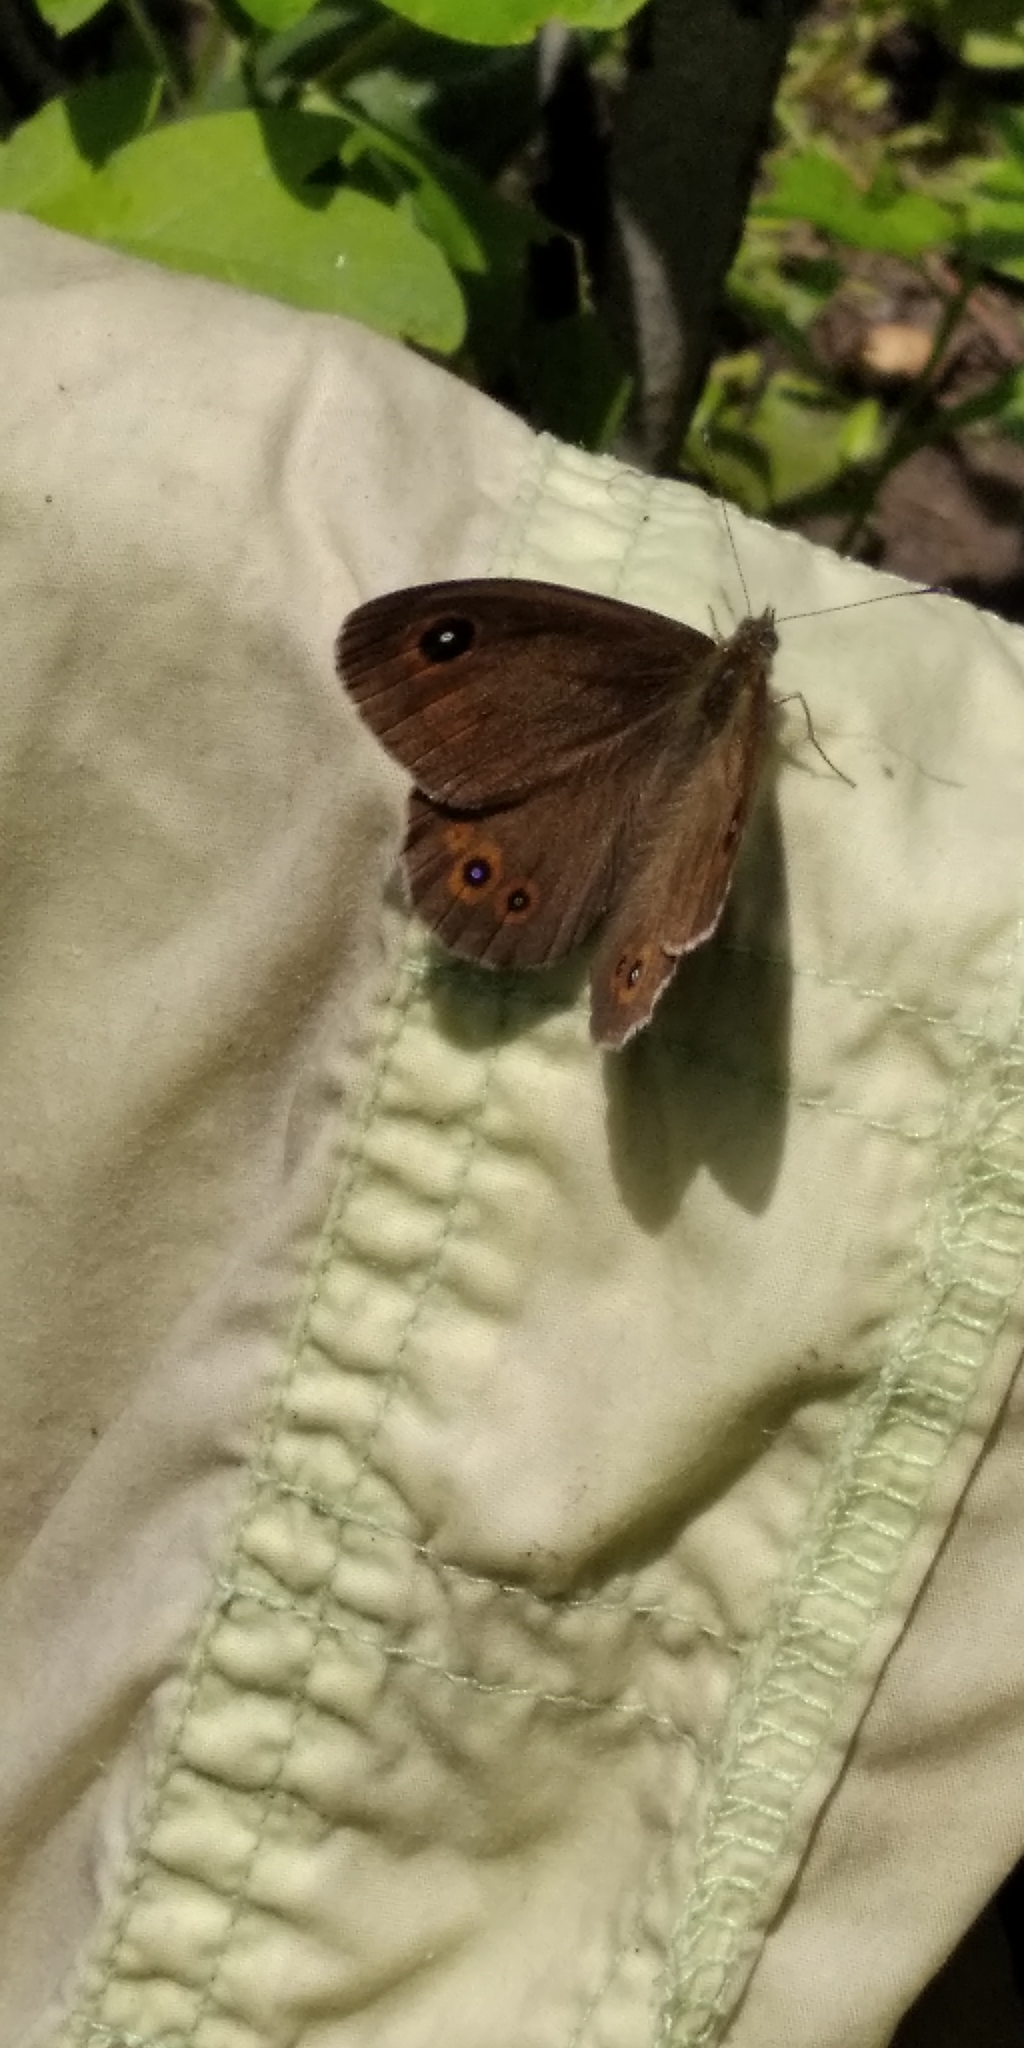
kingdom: Animalia
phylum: Arthropoda
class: Insecta
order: Lepidoptera
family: Nymphalidae
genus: Pararge
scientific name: Pararge Lasiommata maera
